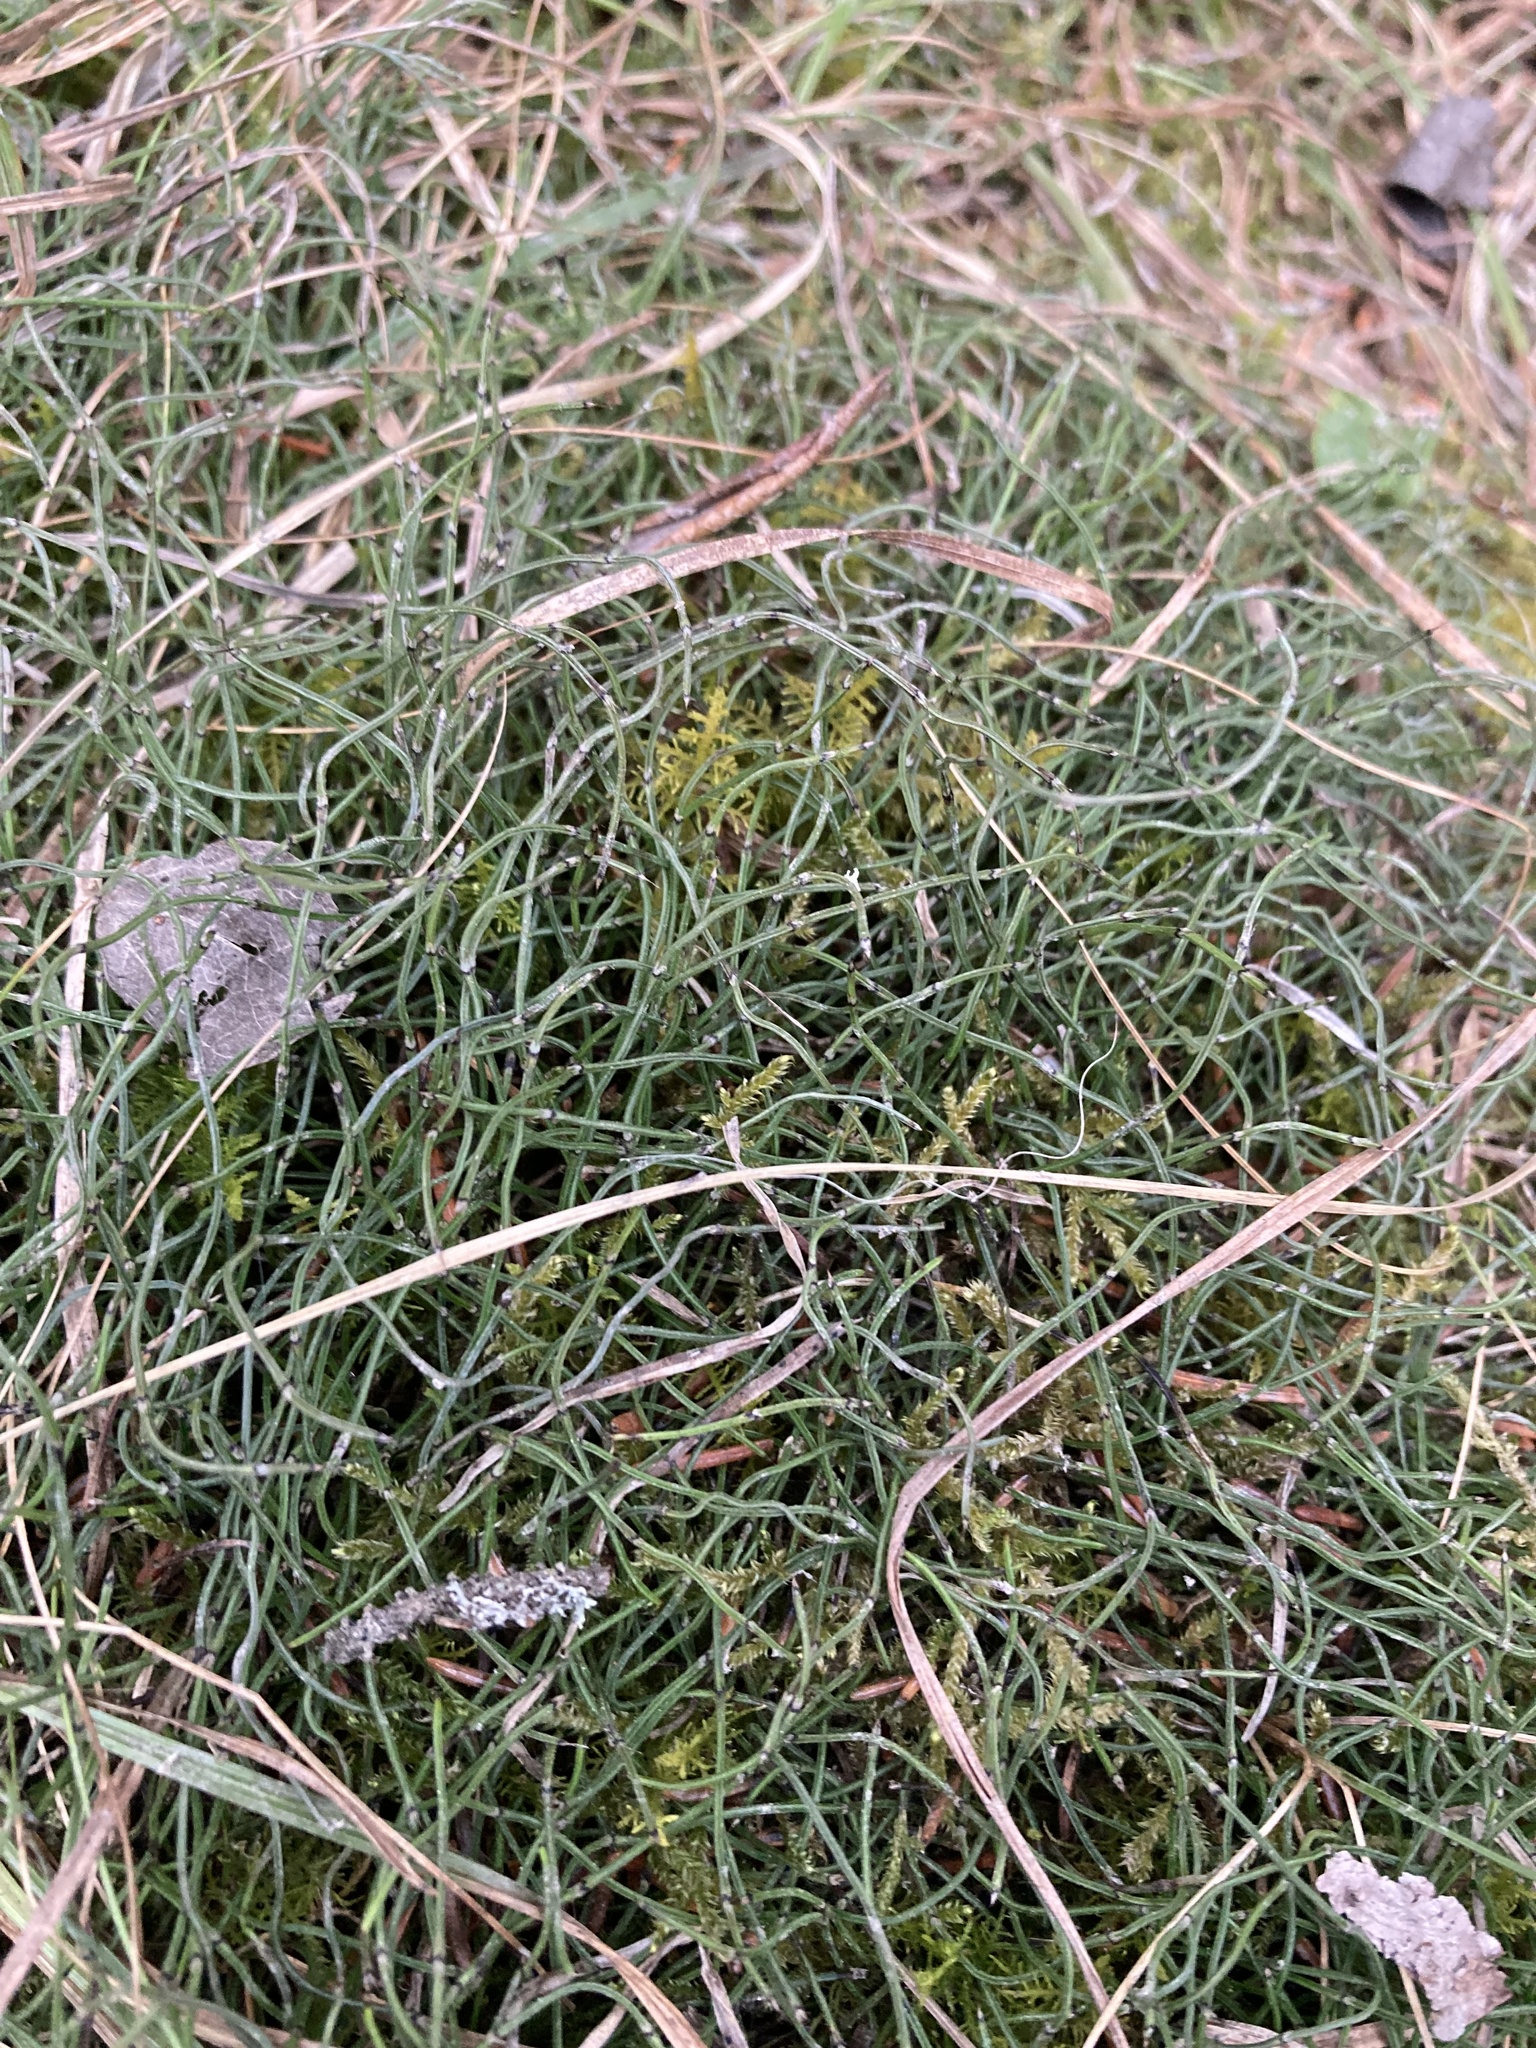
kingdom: Plantae
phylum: Tracheophyta
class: Polypodiopsida
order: Equisetales
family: Equisetaceae
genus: Equisetum
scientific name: Equisetum scirpoides
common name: Delicate horsetail
